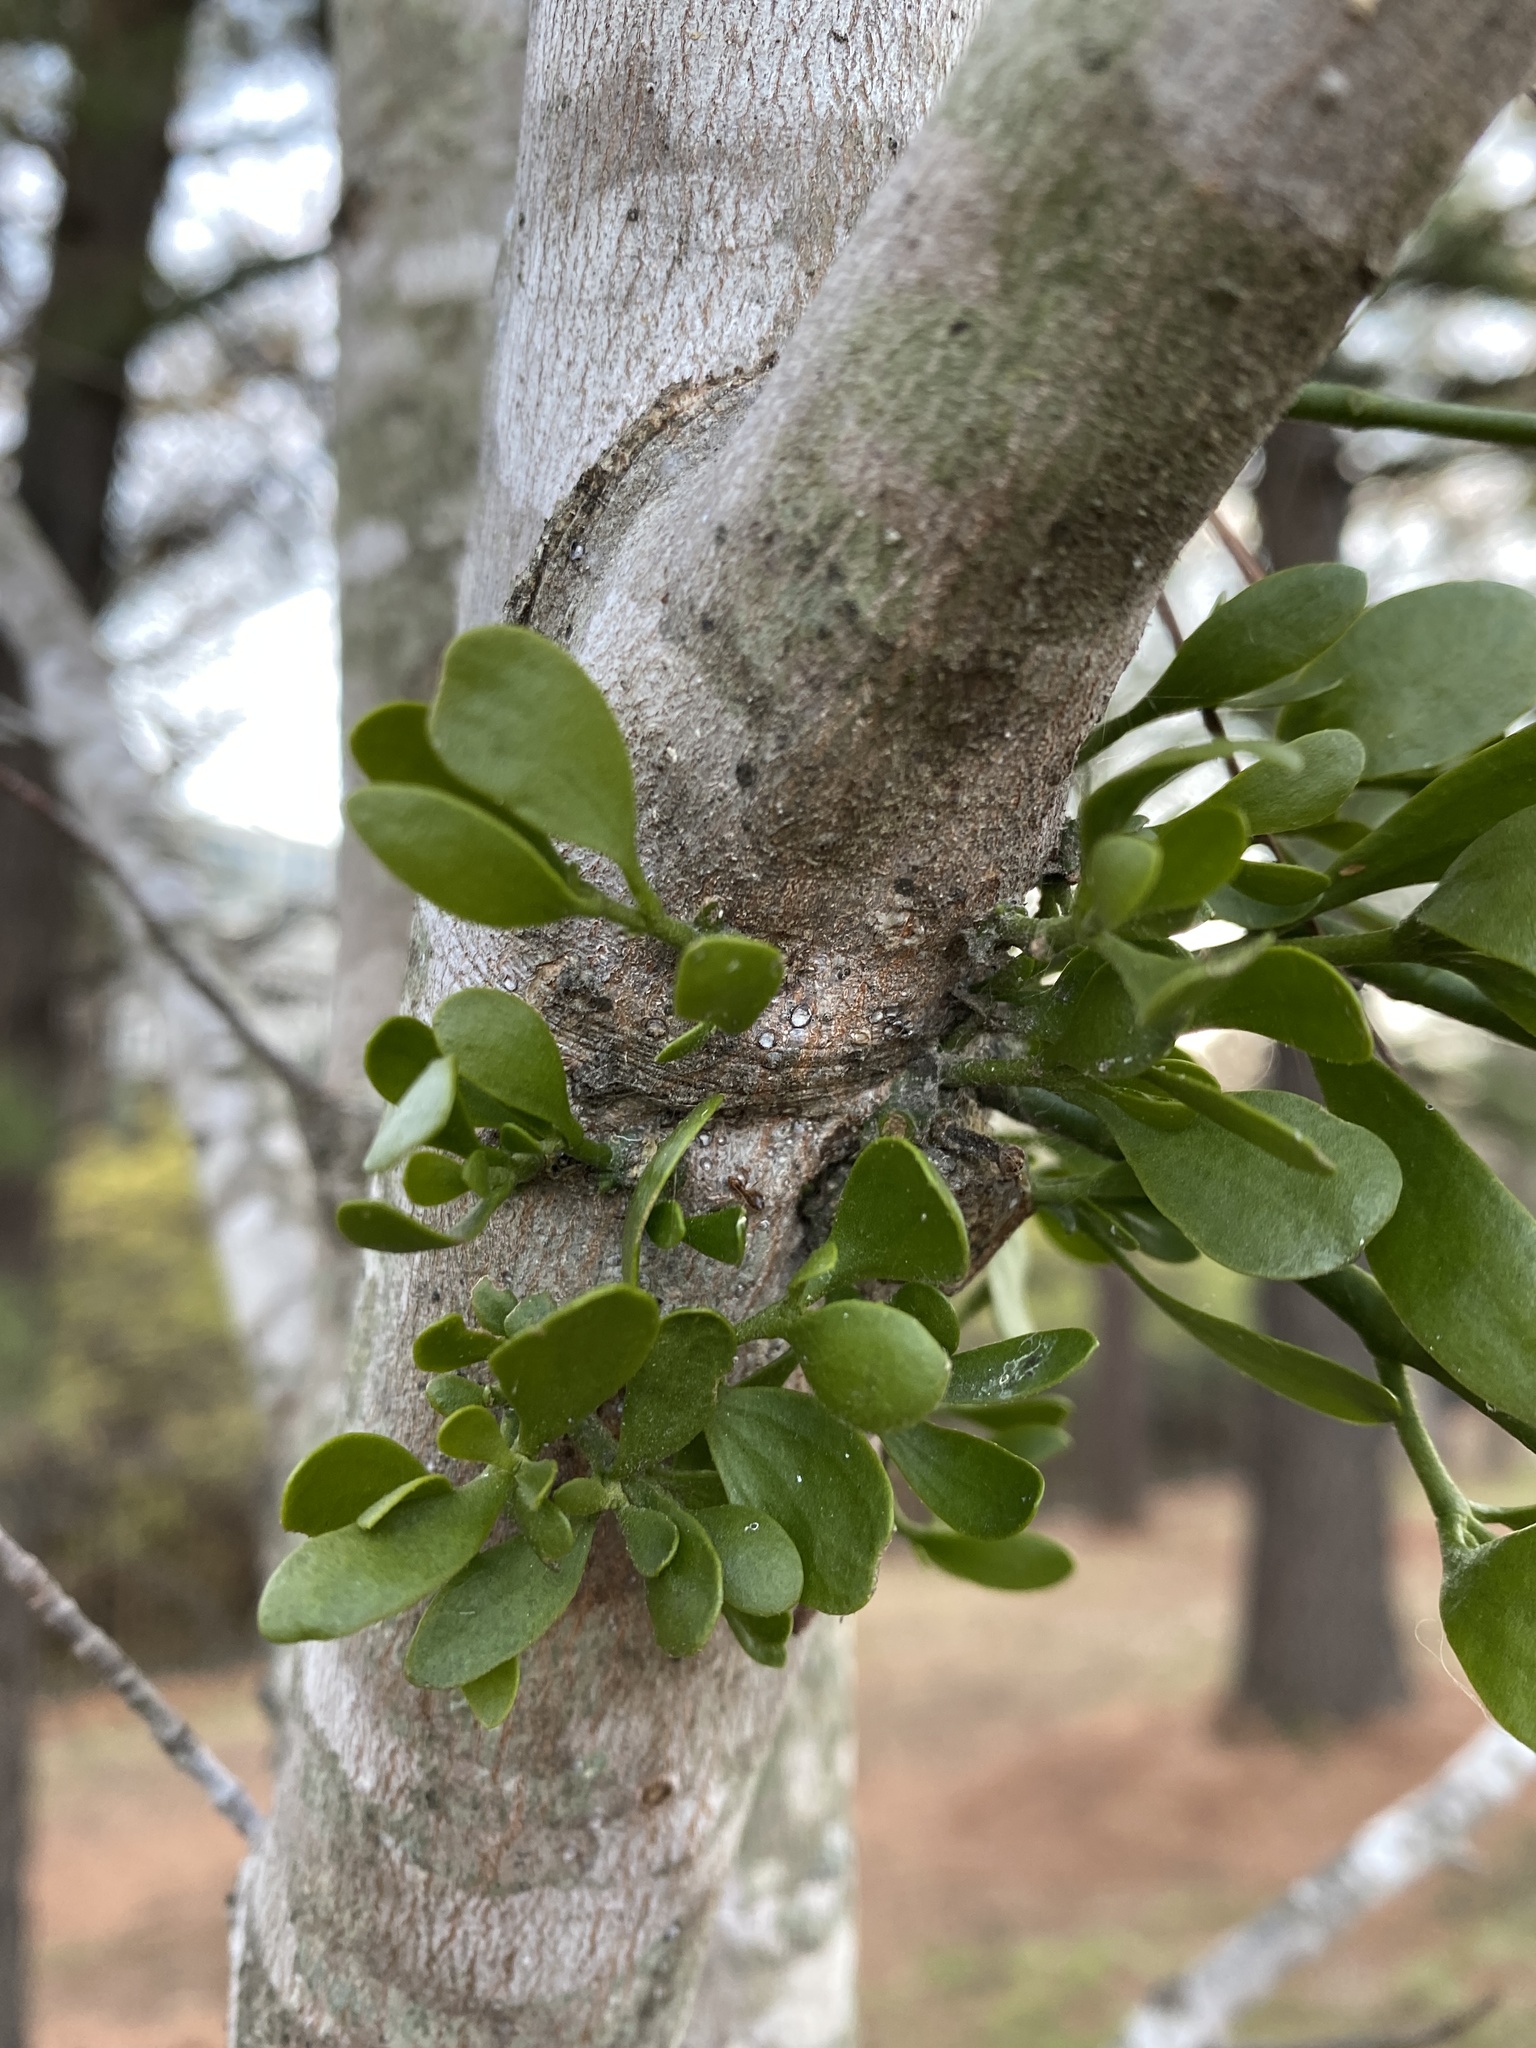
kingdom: Plantae
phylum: Tracheophyta
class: Magnoliopsida
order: Santalales
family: Viscaceae
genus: Phoradendron
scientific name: Phoradendron leucarpum
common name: Pacific mistletoe
